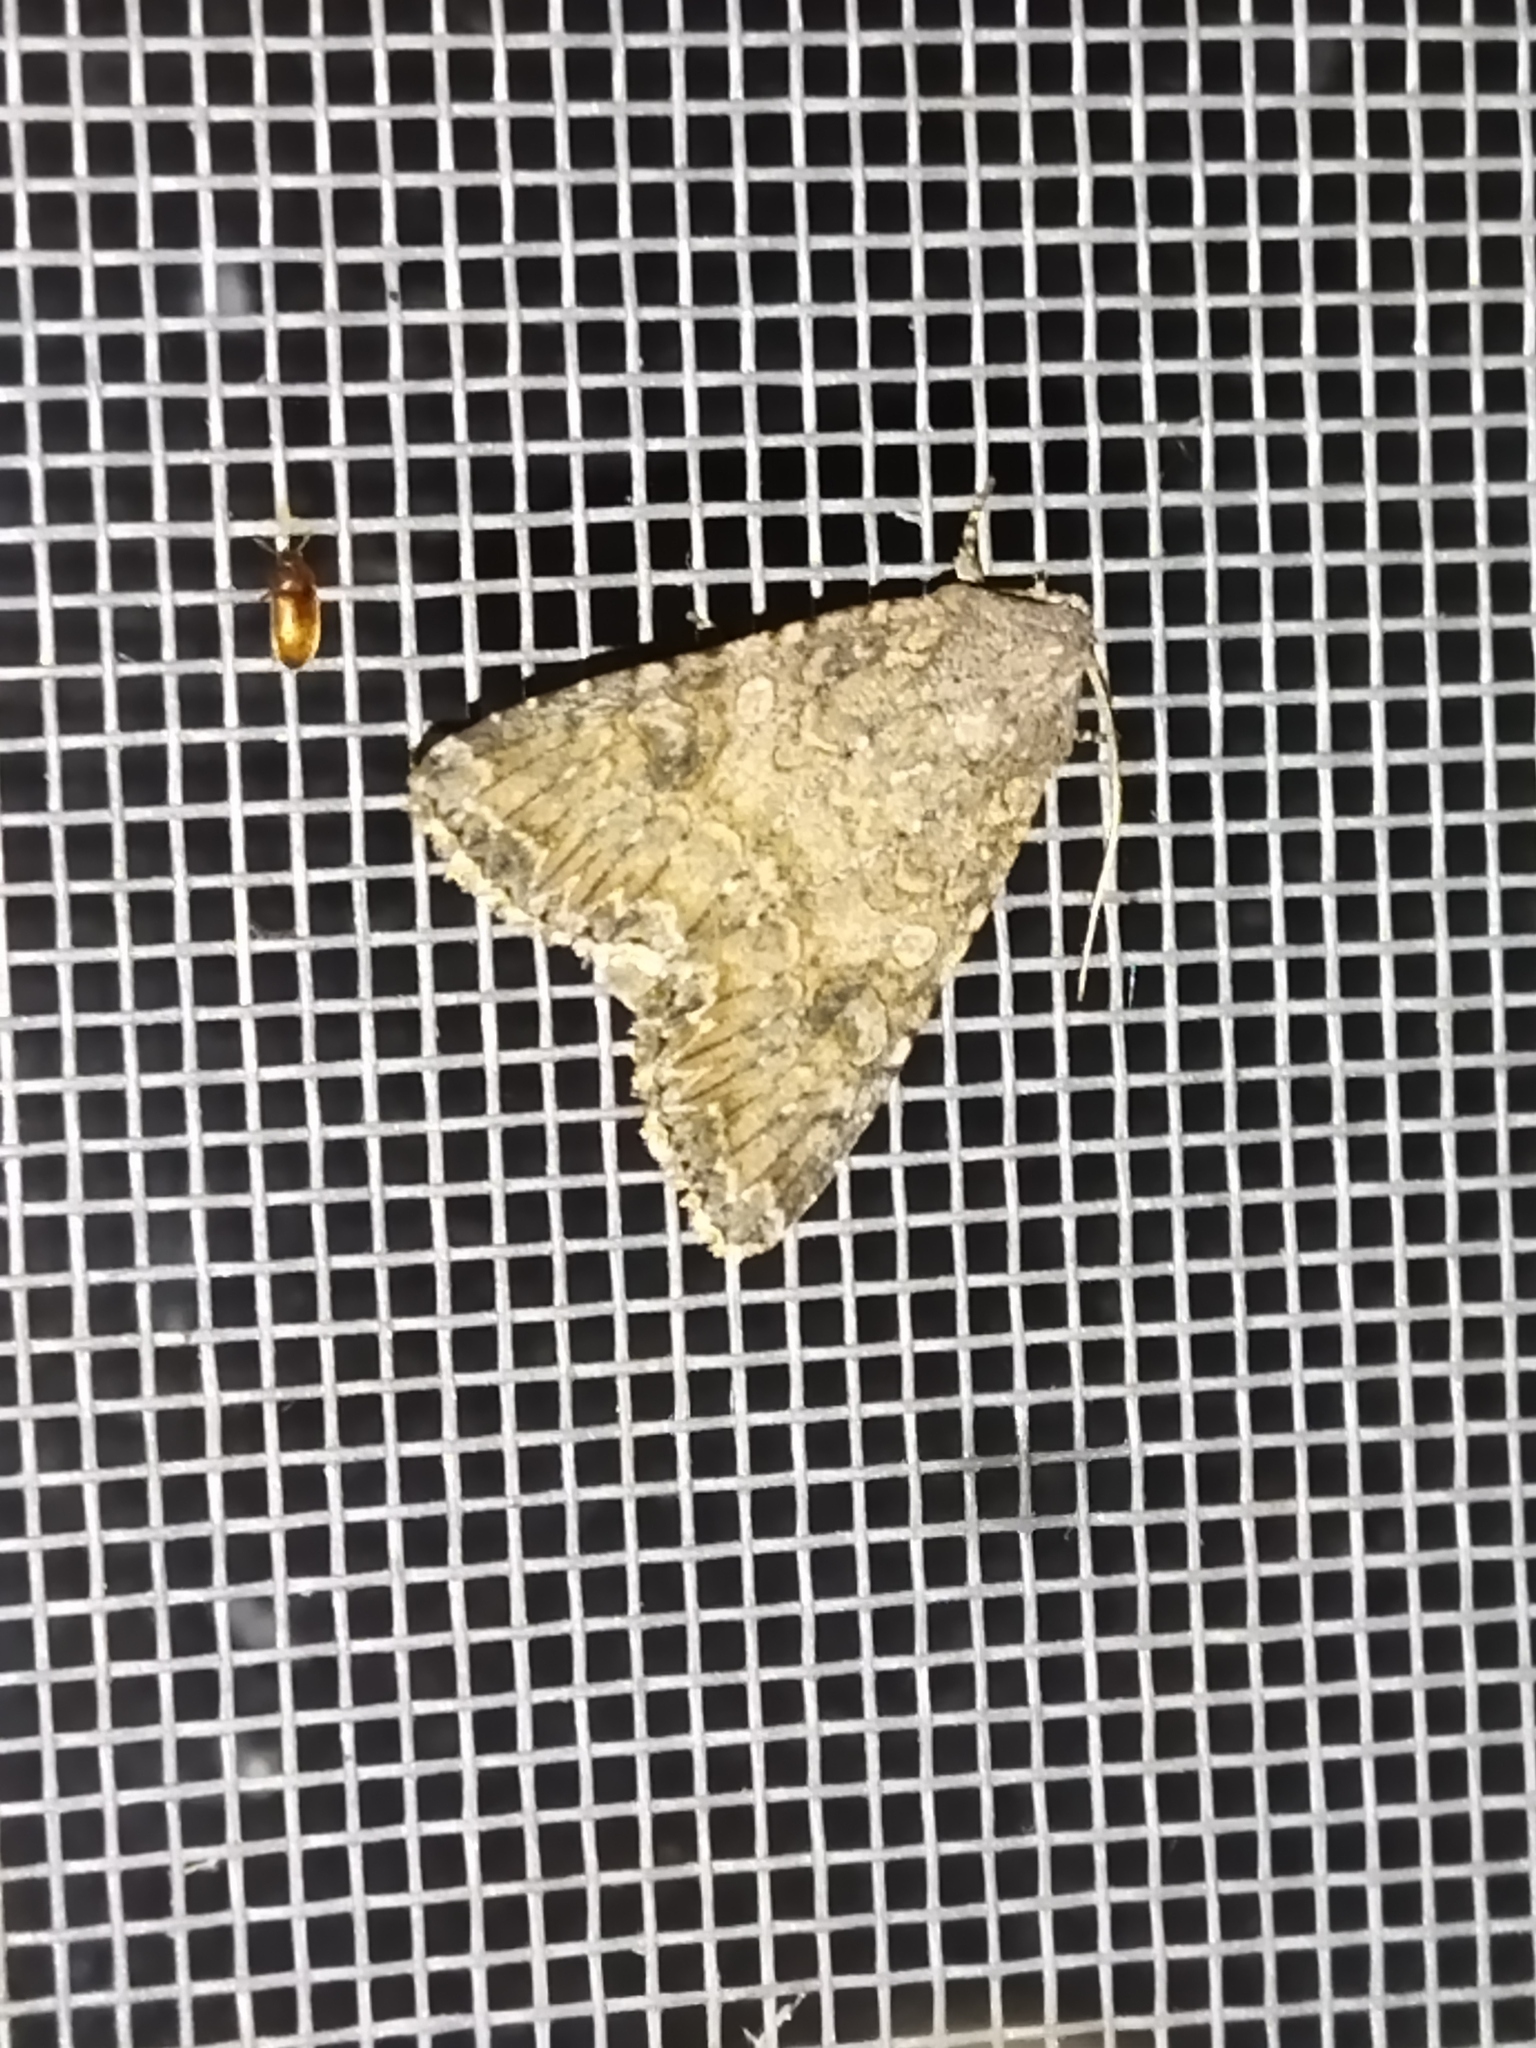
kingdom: Animalia
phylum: Arthropoda
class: Insecta
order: Lepidoptera
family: Noctuidae
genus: Anarta
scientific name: Anarta trifolii
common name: Clover cutworm moth
